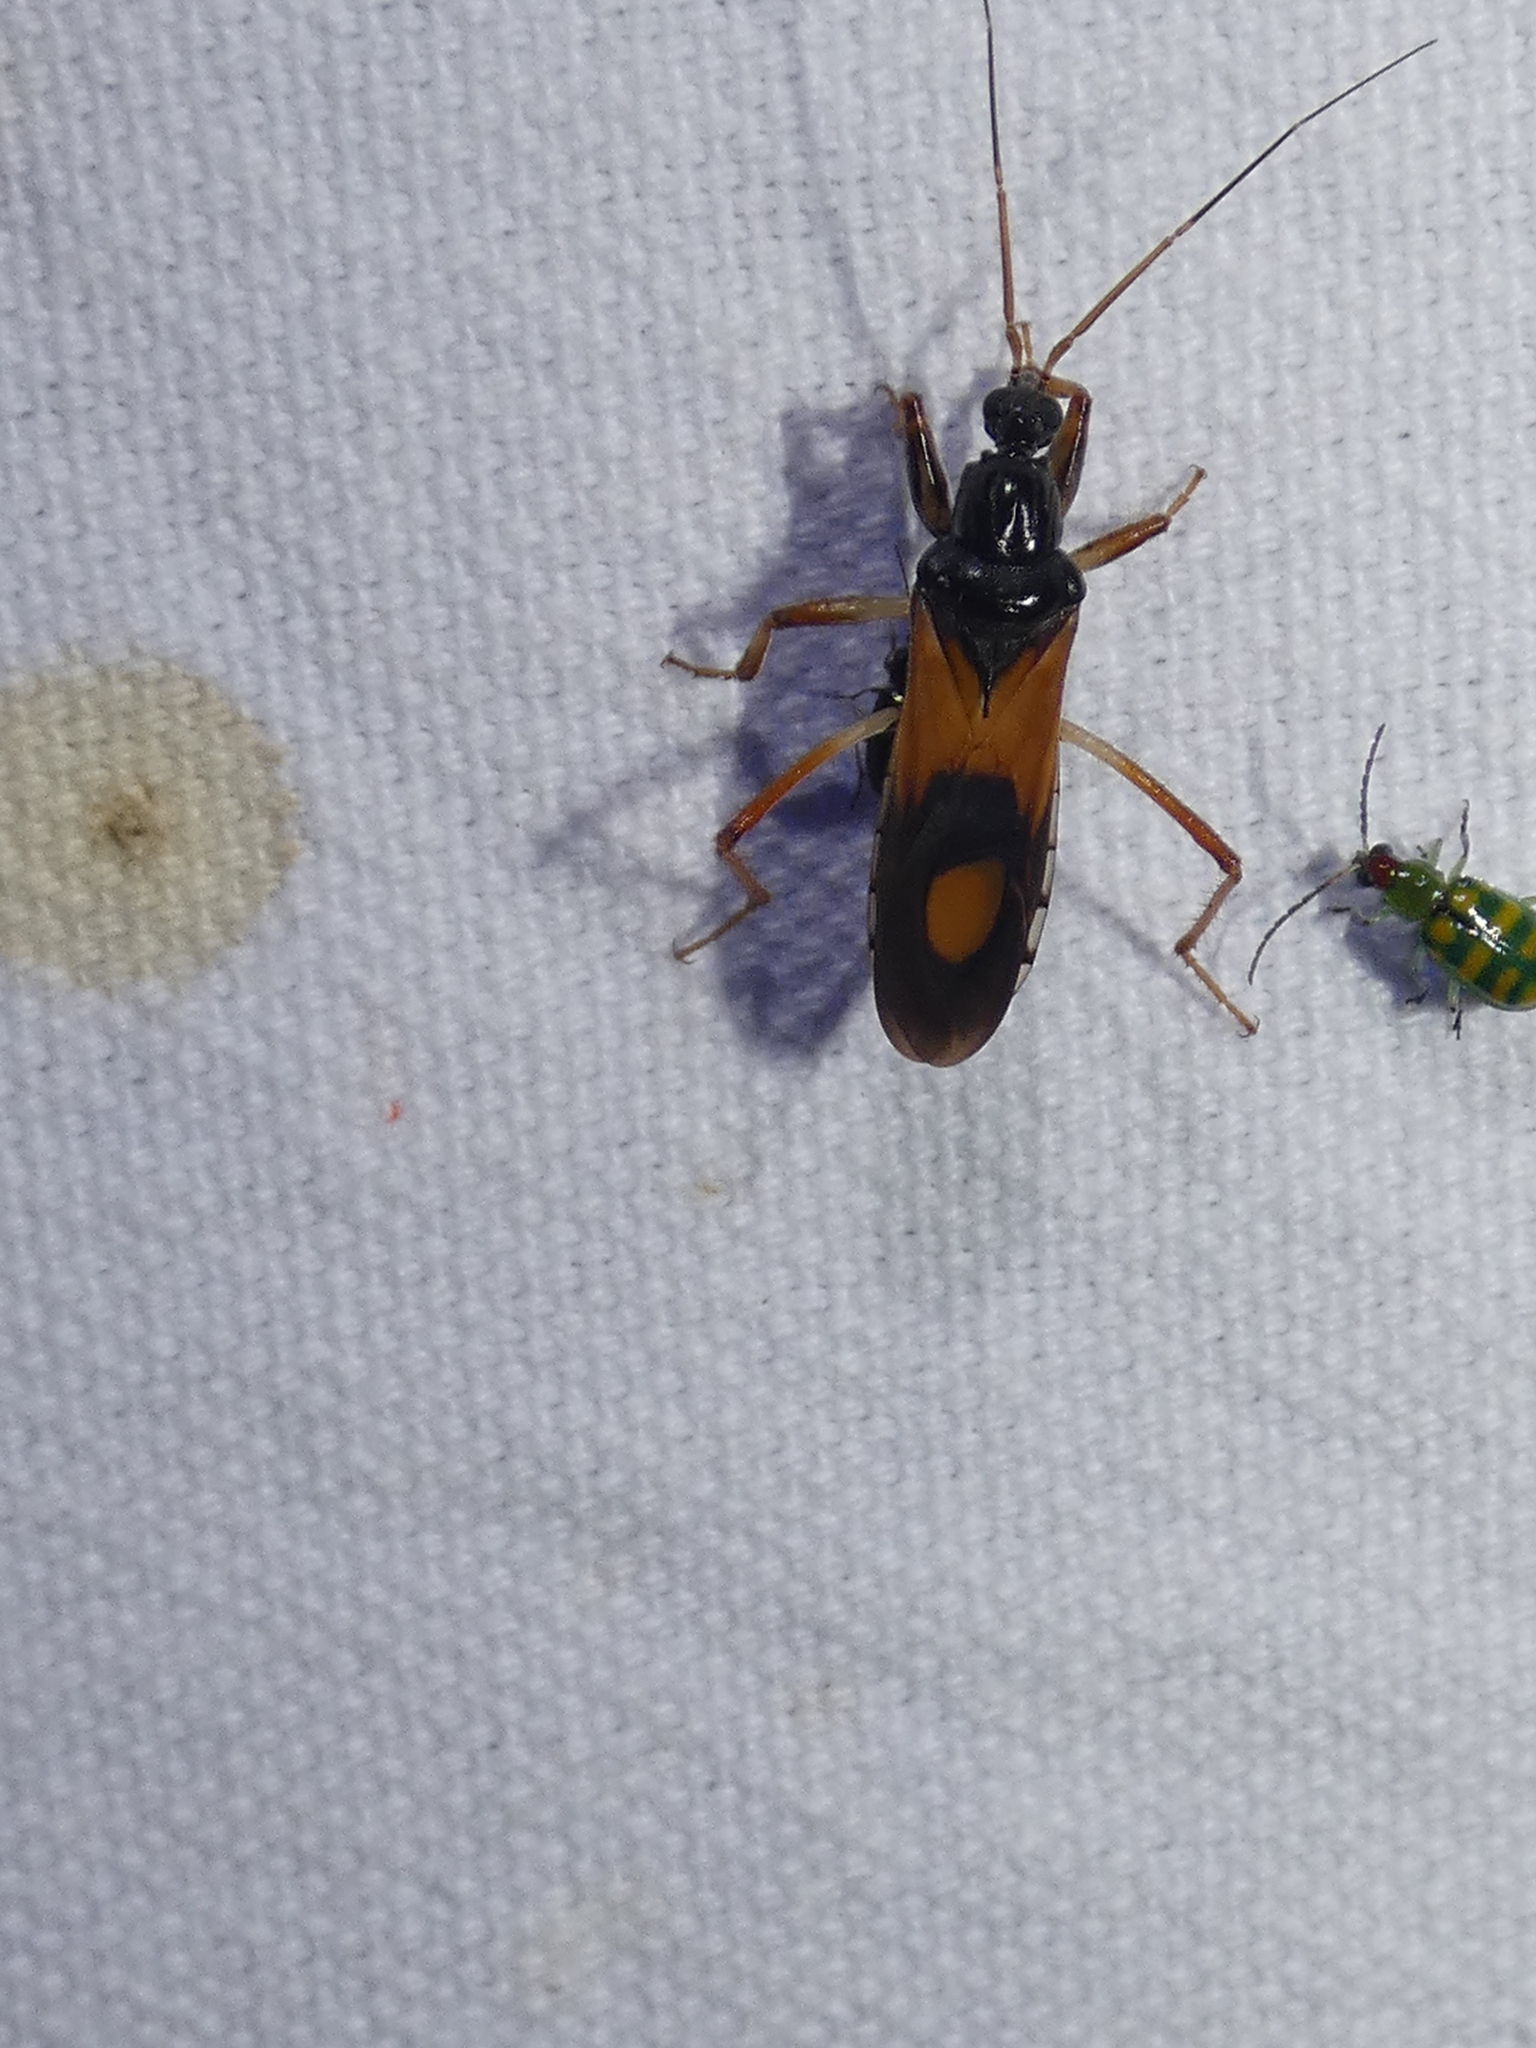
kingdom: Animalia
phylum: Arthropoda
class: Insecta
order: Hemiptera
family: Reduviidae
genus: Rasahus
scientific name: Rasahus biguttatus
